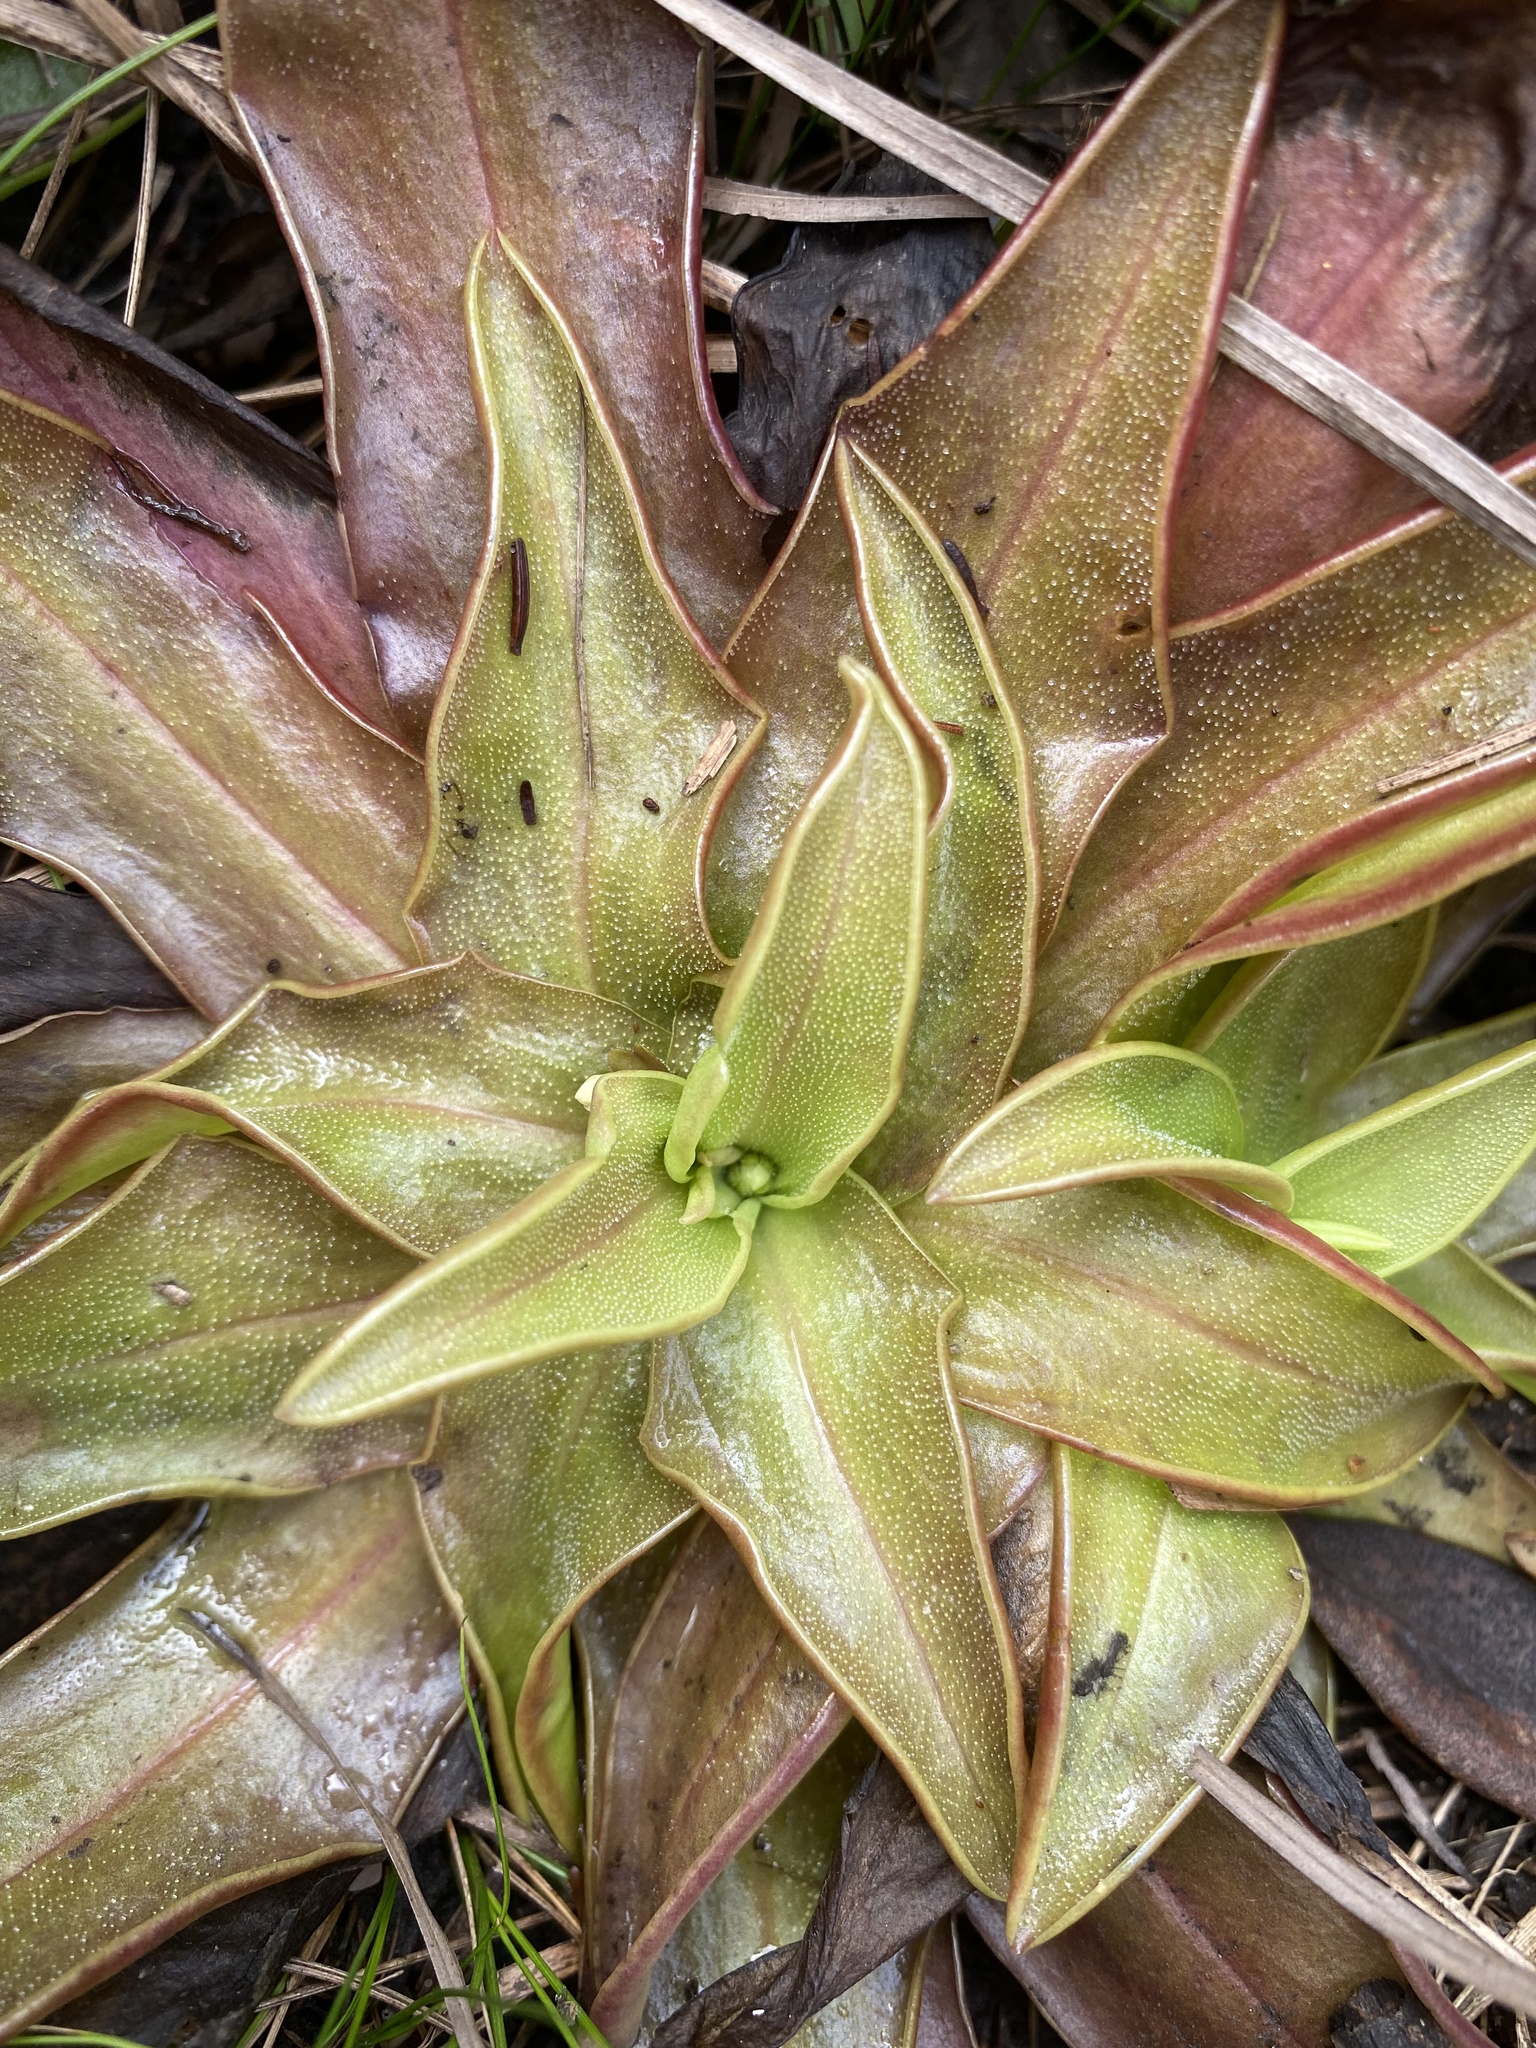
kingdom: Plantae
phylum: Tracheophyta
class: Magnoliopsida
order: Lamiales
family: Lentibulariaceae
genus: Pinguicula
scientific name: Pinguicula planifolia
